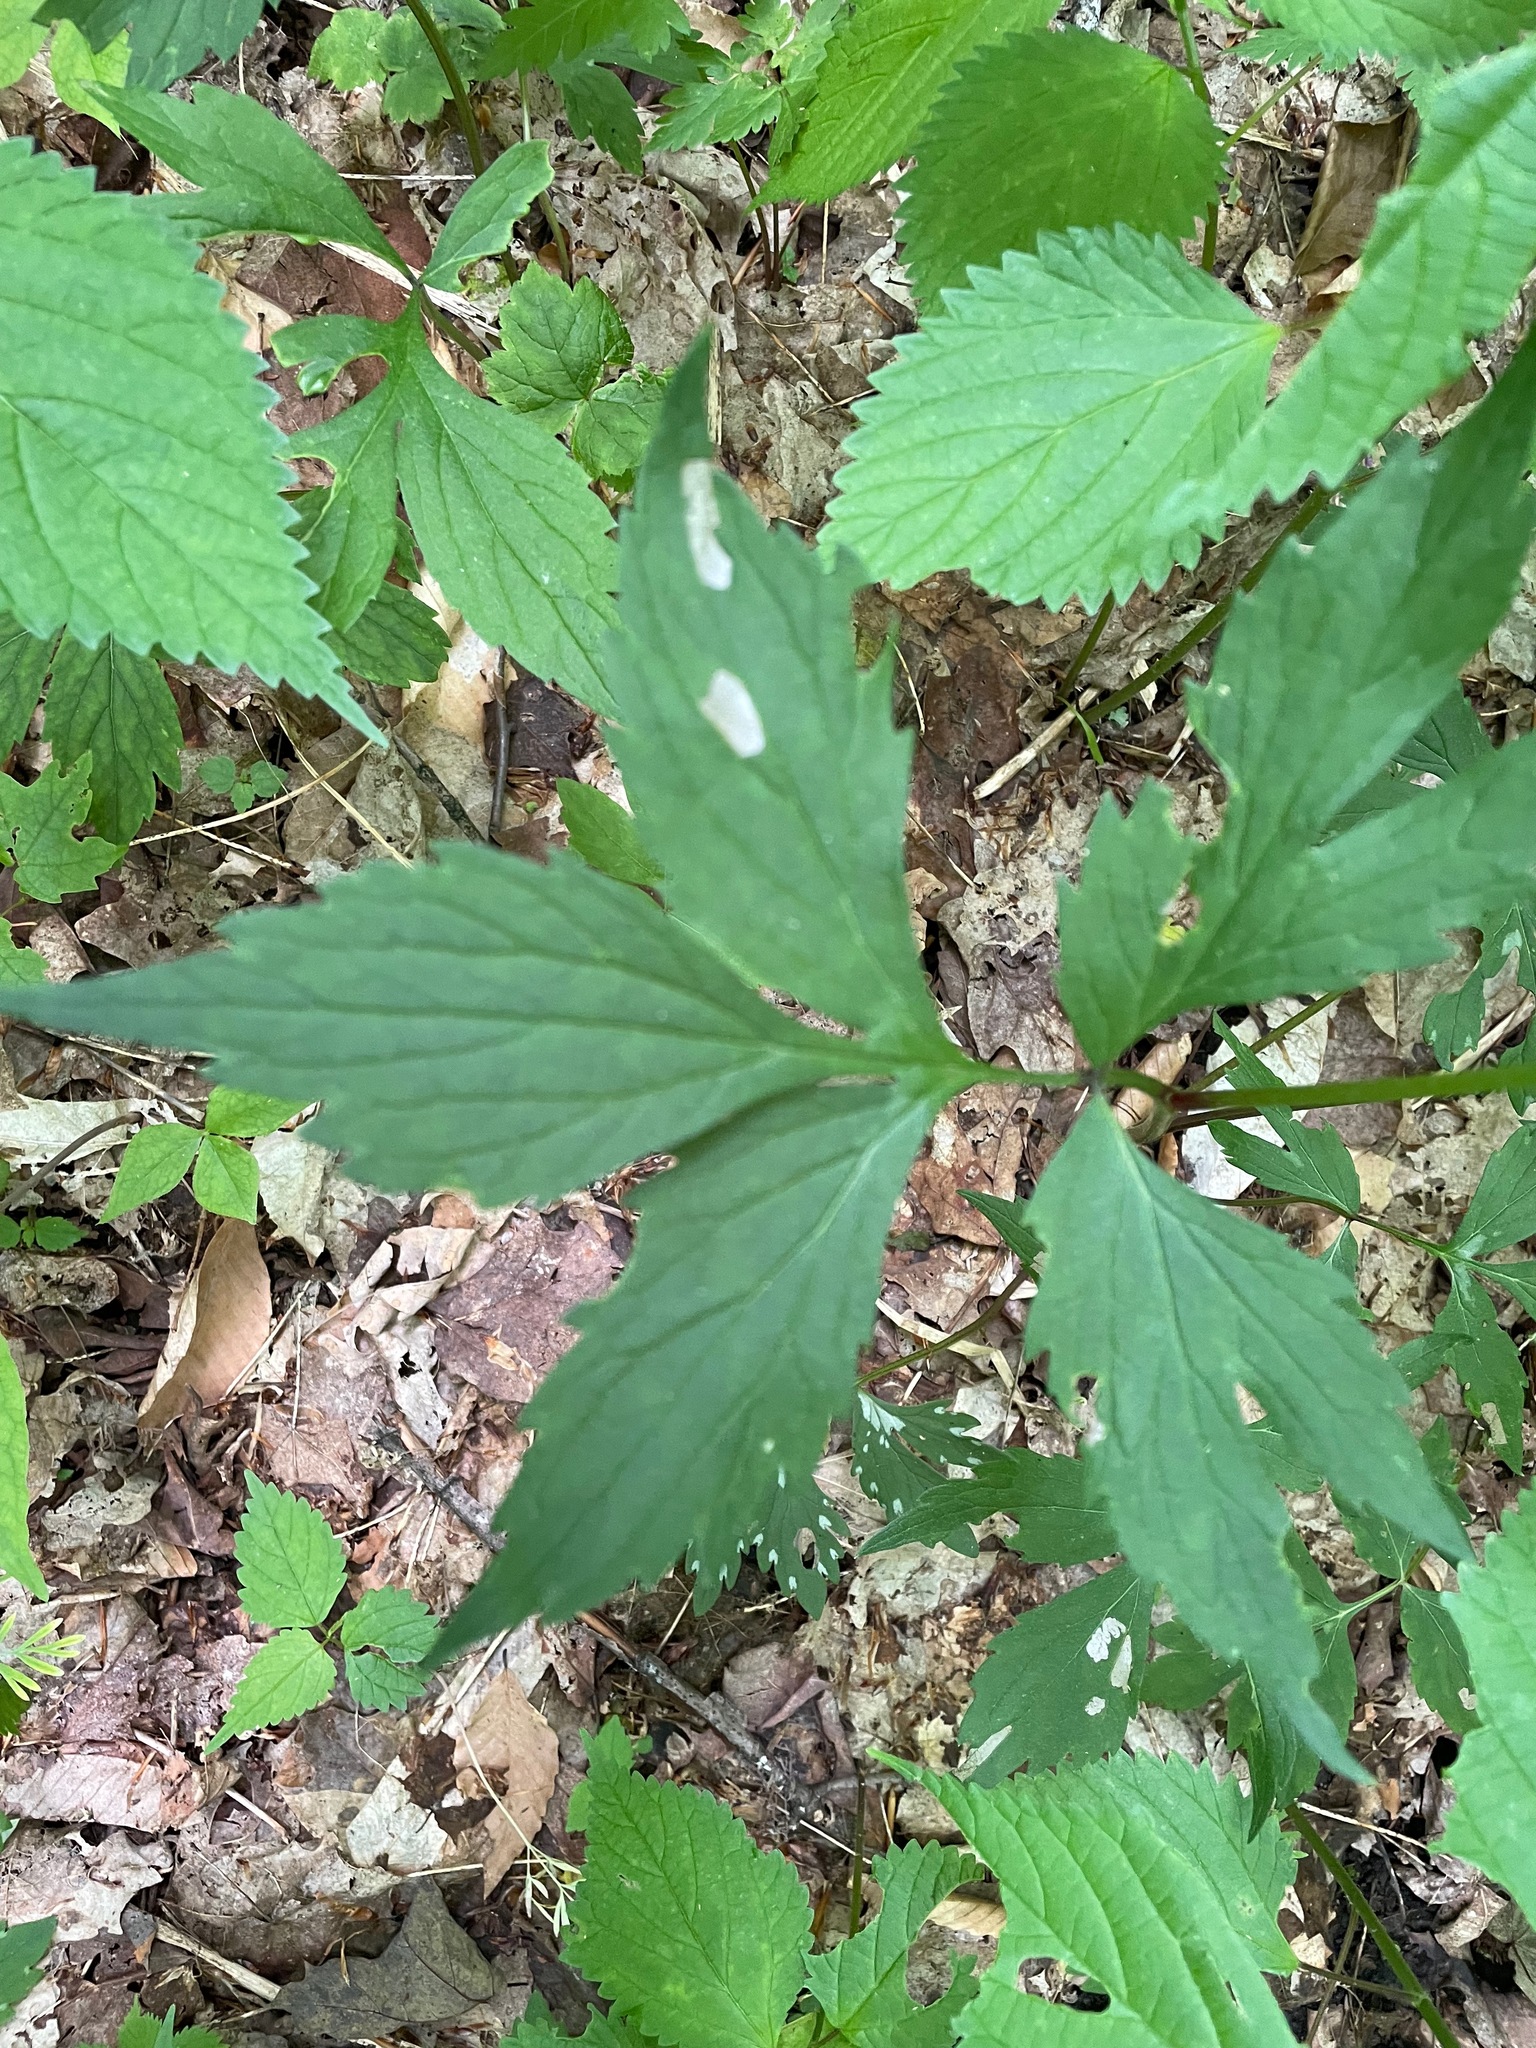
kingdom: Plantae
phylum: Tracheophyta
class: Magnoliopsida
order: Boraginales
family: Hydrophyllaceae
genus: Hydrophyllum
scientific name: Hydrophyllum virginianum
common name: Virginia waterleaf
